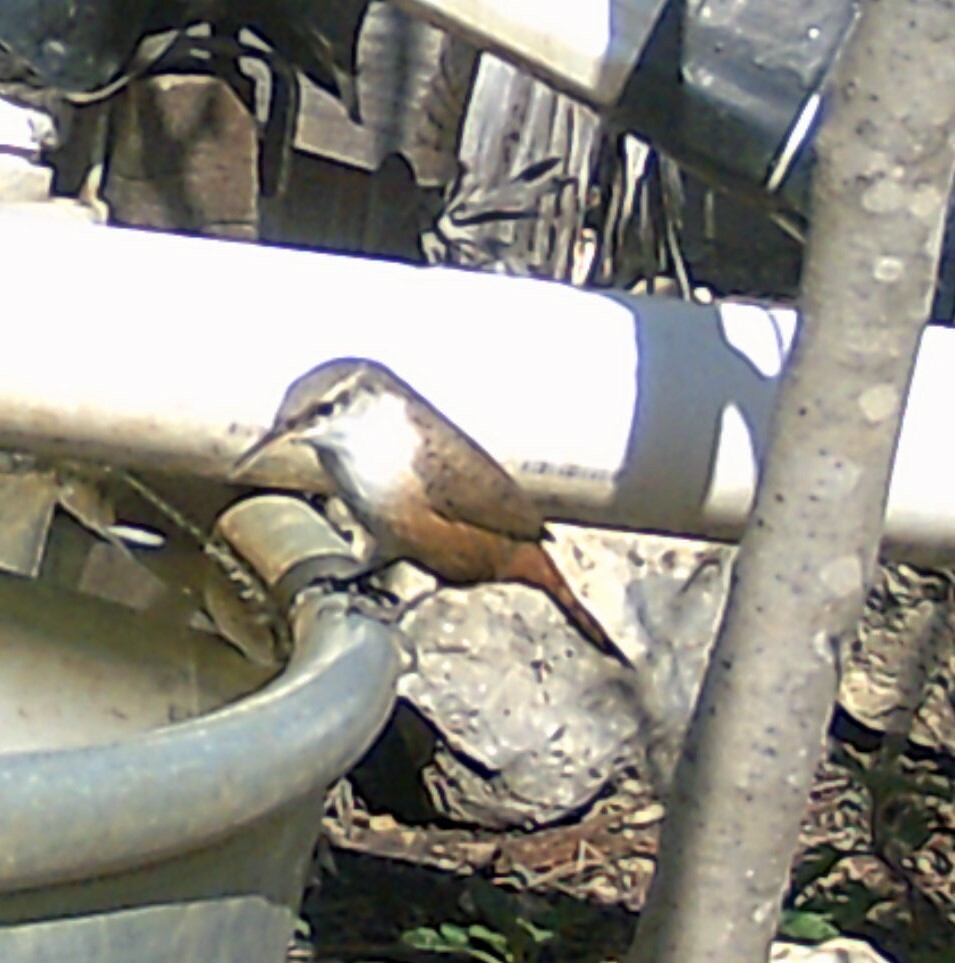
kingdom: Animalia
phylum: Chordata
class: Aves
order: Passeriformes
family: Troglodytidae
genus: Catherpes
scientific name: Catherpes mexicanus
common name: Canyon wren
